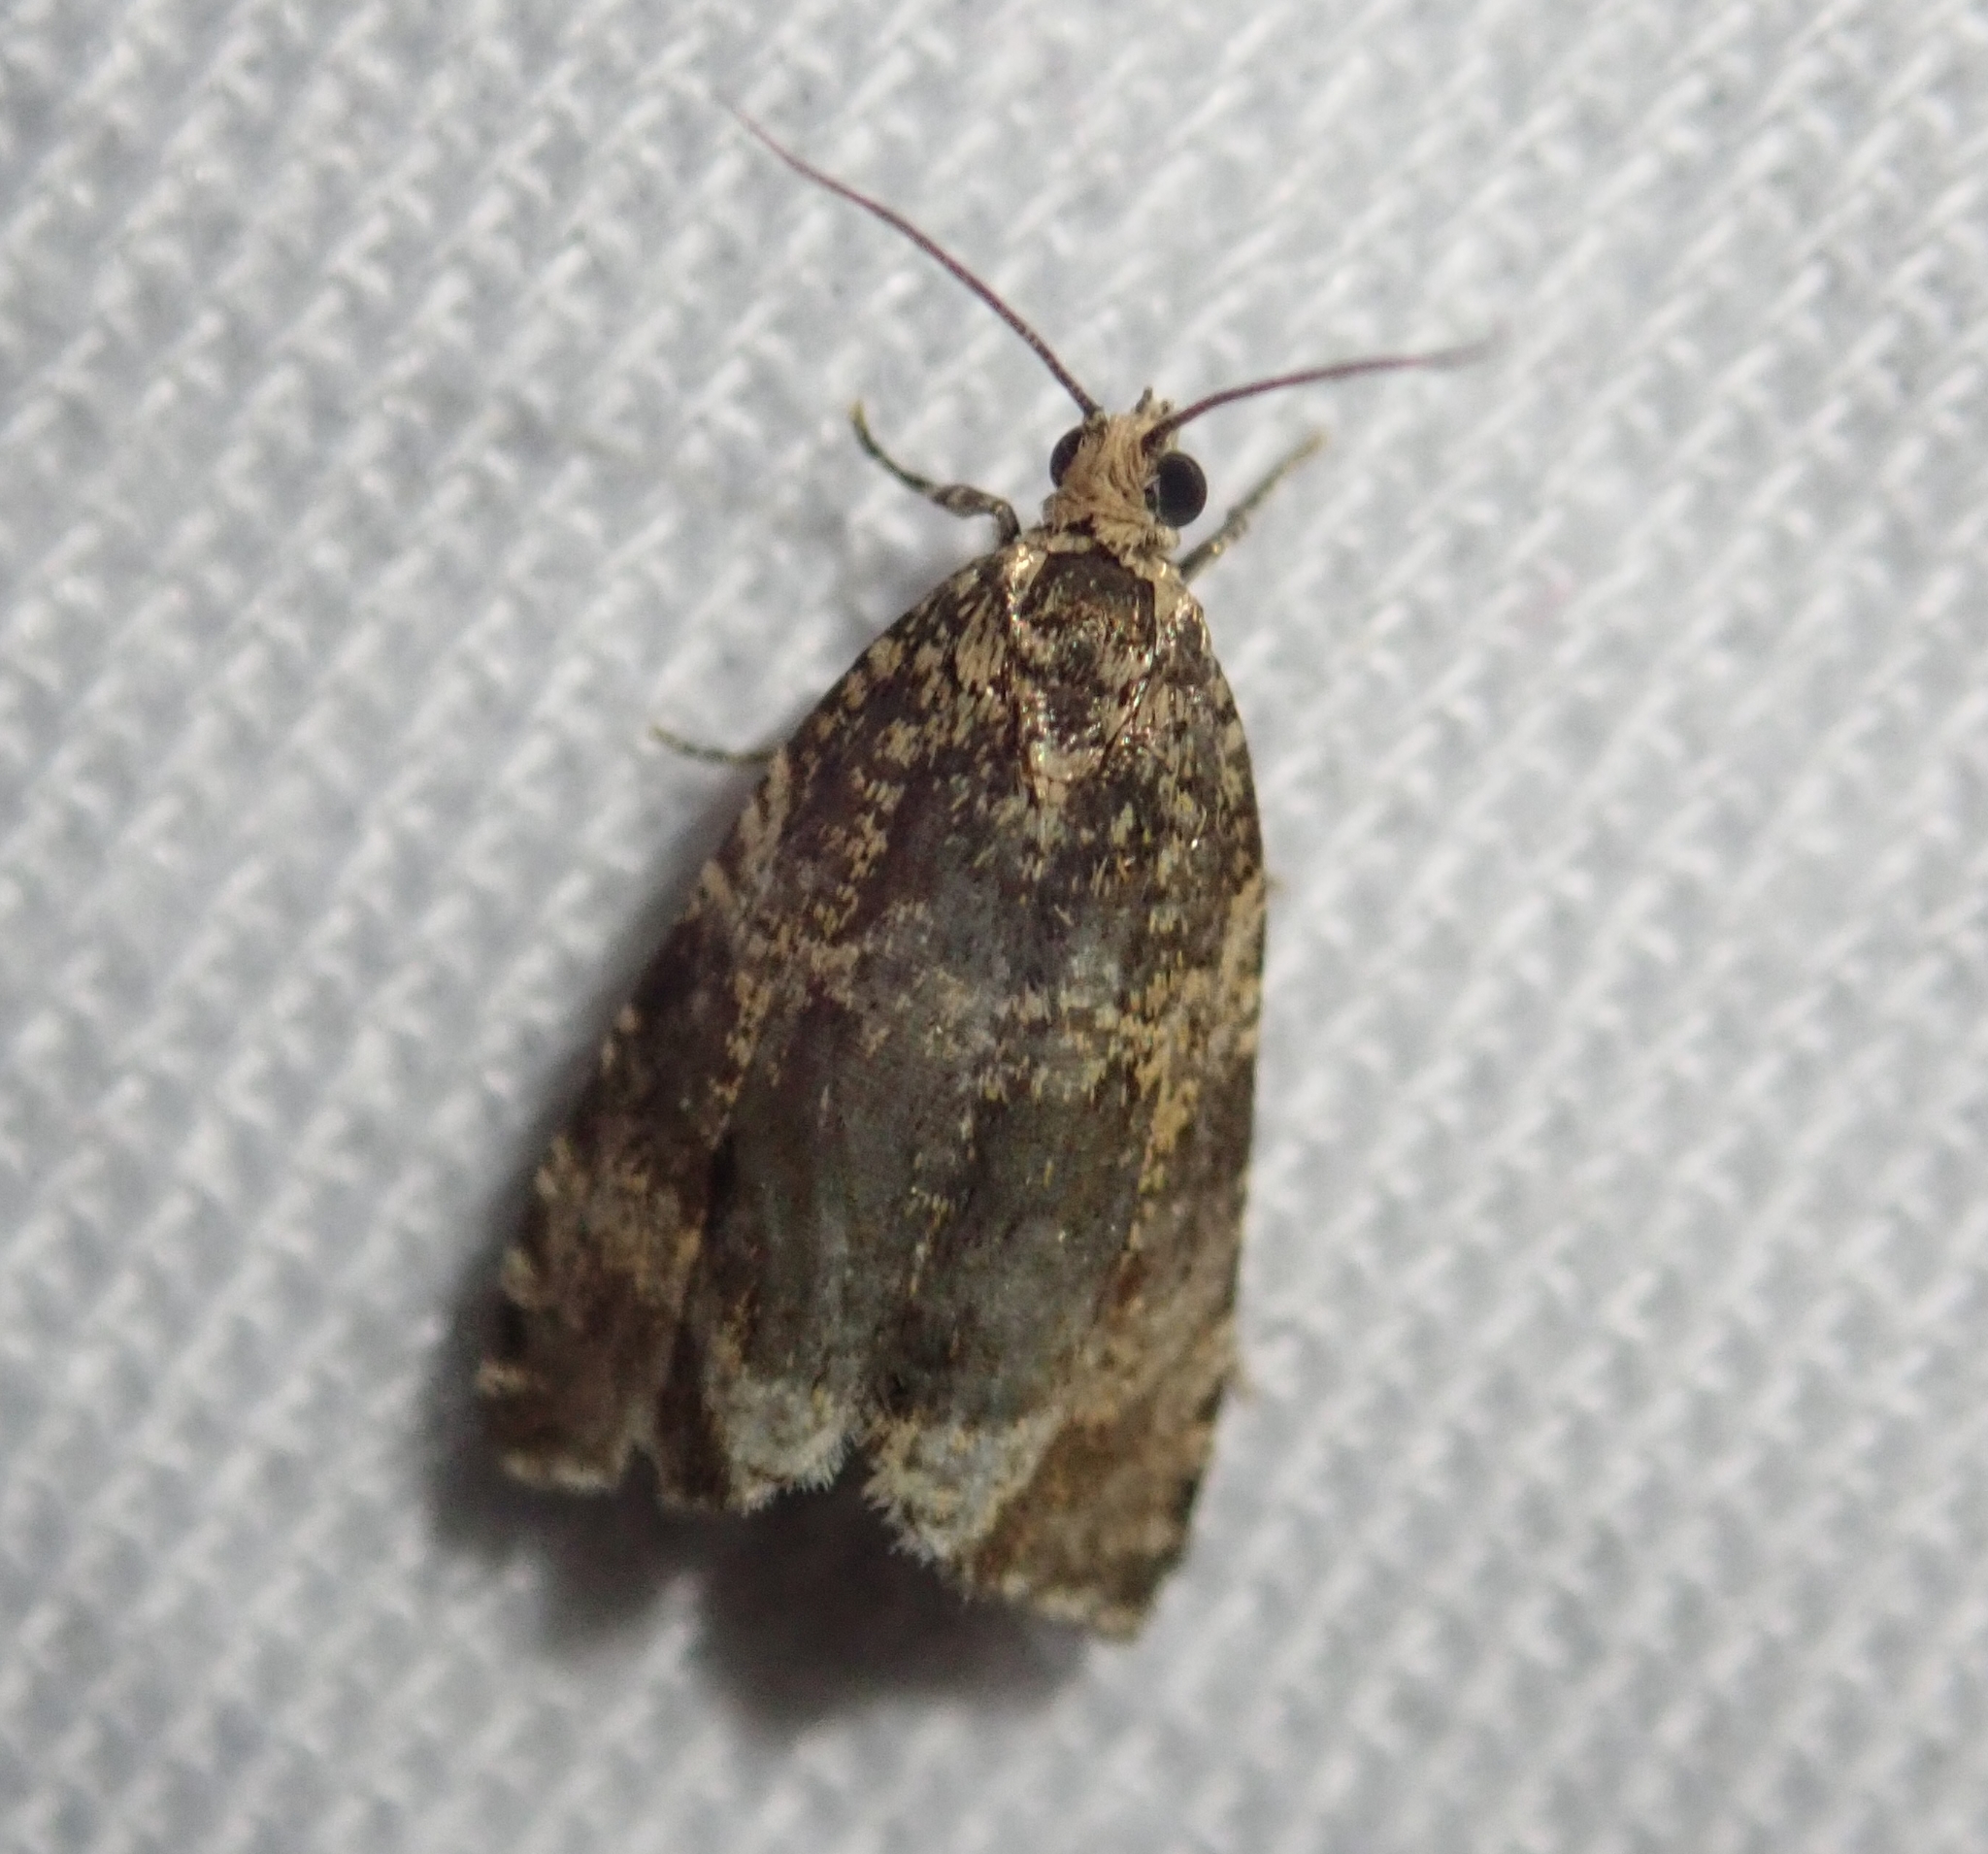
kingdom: Animalia
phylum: Arthropoda
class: Insecta
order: Lepidoptera
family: Tortricidae
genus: Syricoris
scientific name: Syricoris lacunana
